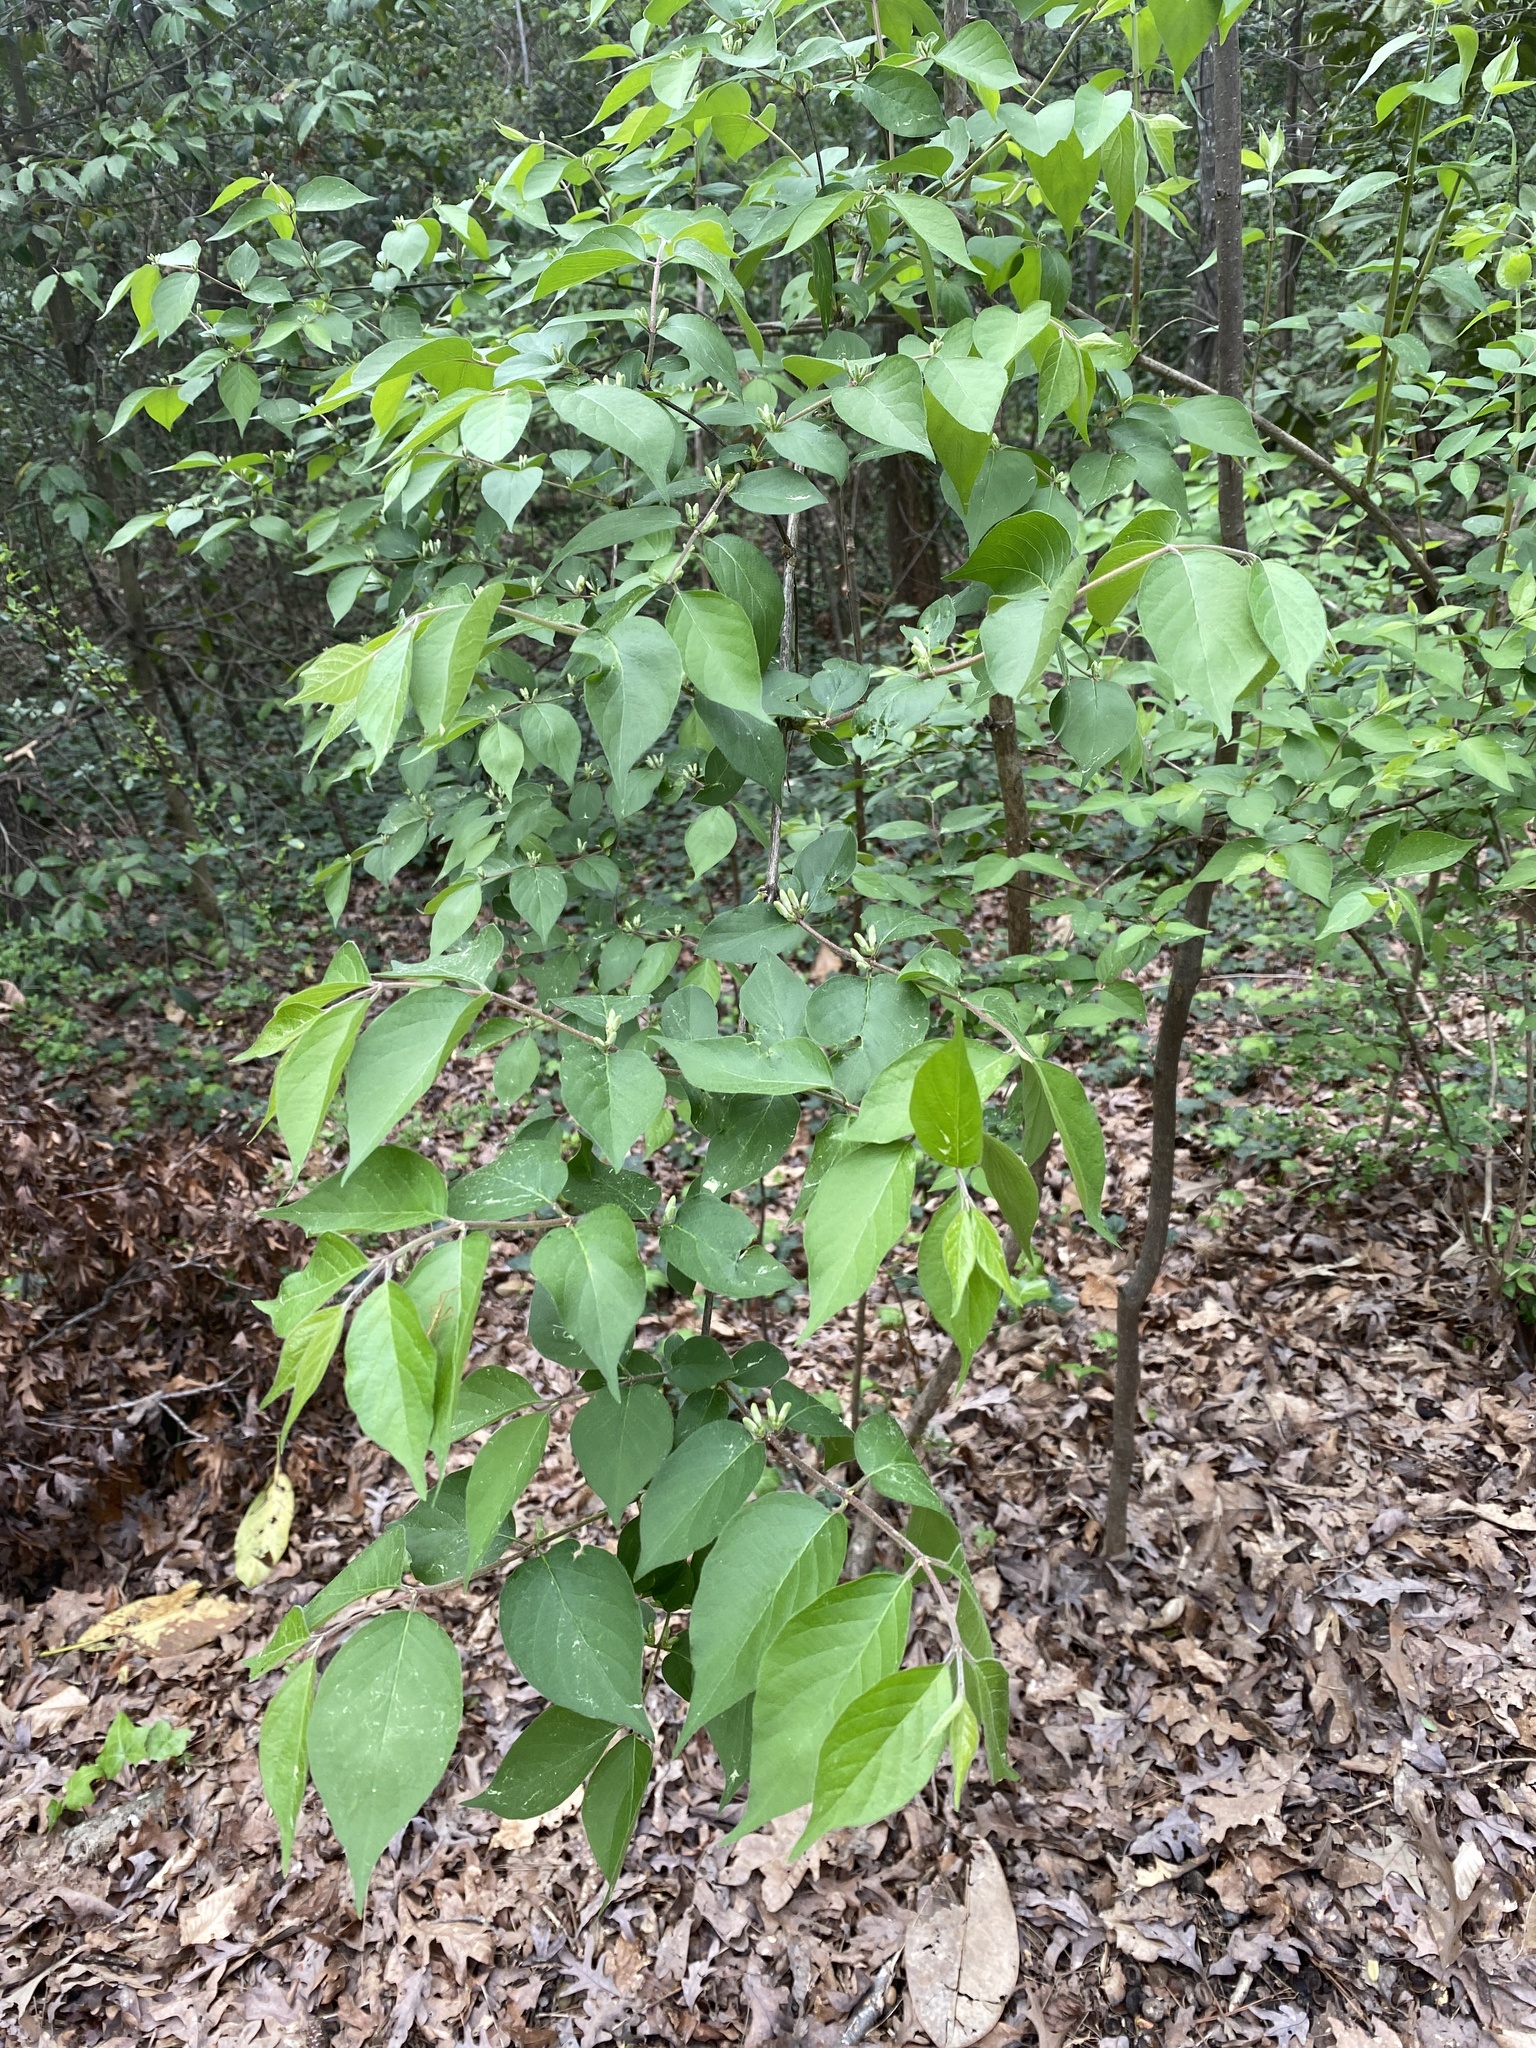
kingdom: Plantae
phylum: Tracheophyta
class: Magnoliopsida
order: Dipsacales
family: Caprifoliaceae
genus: Lonicera
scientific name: Lonicera maackii
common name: Amur honeysuckle
